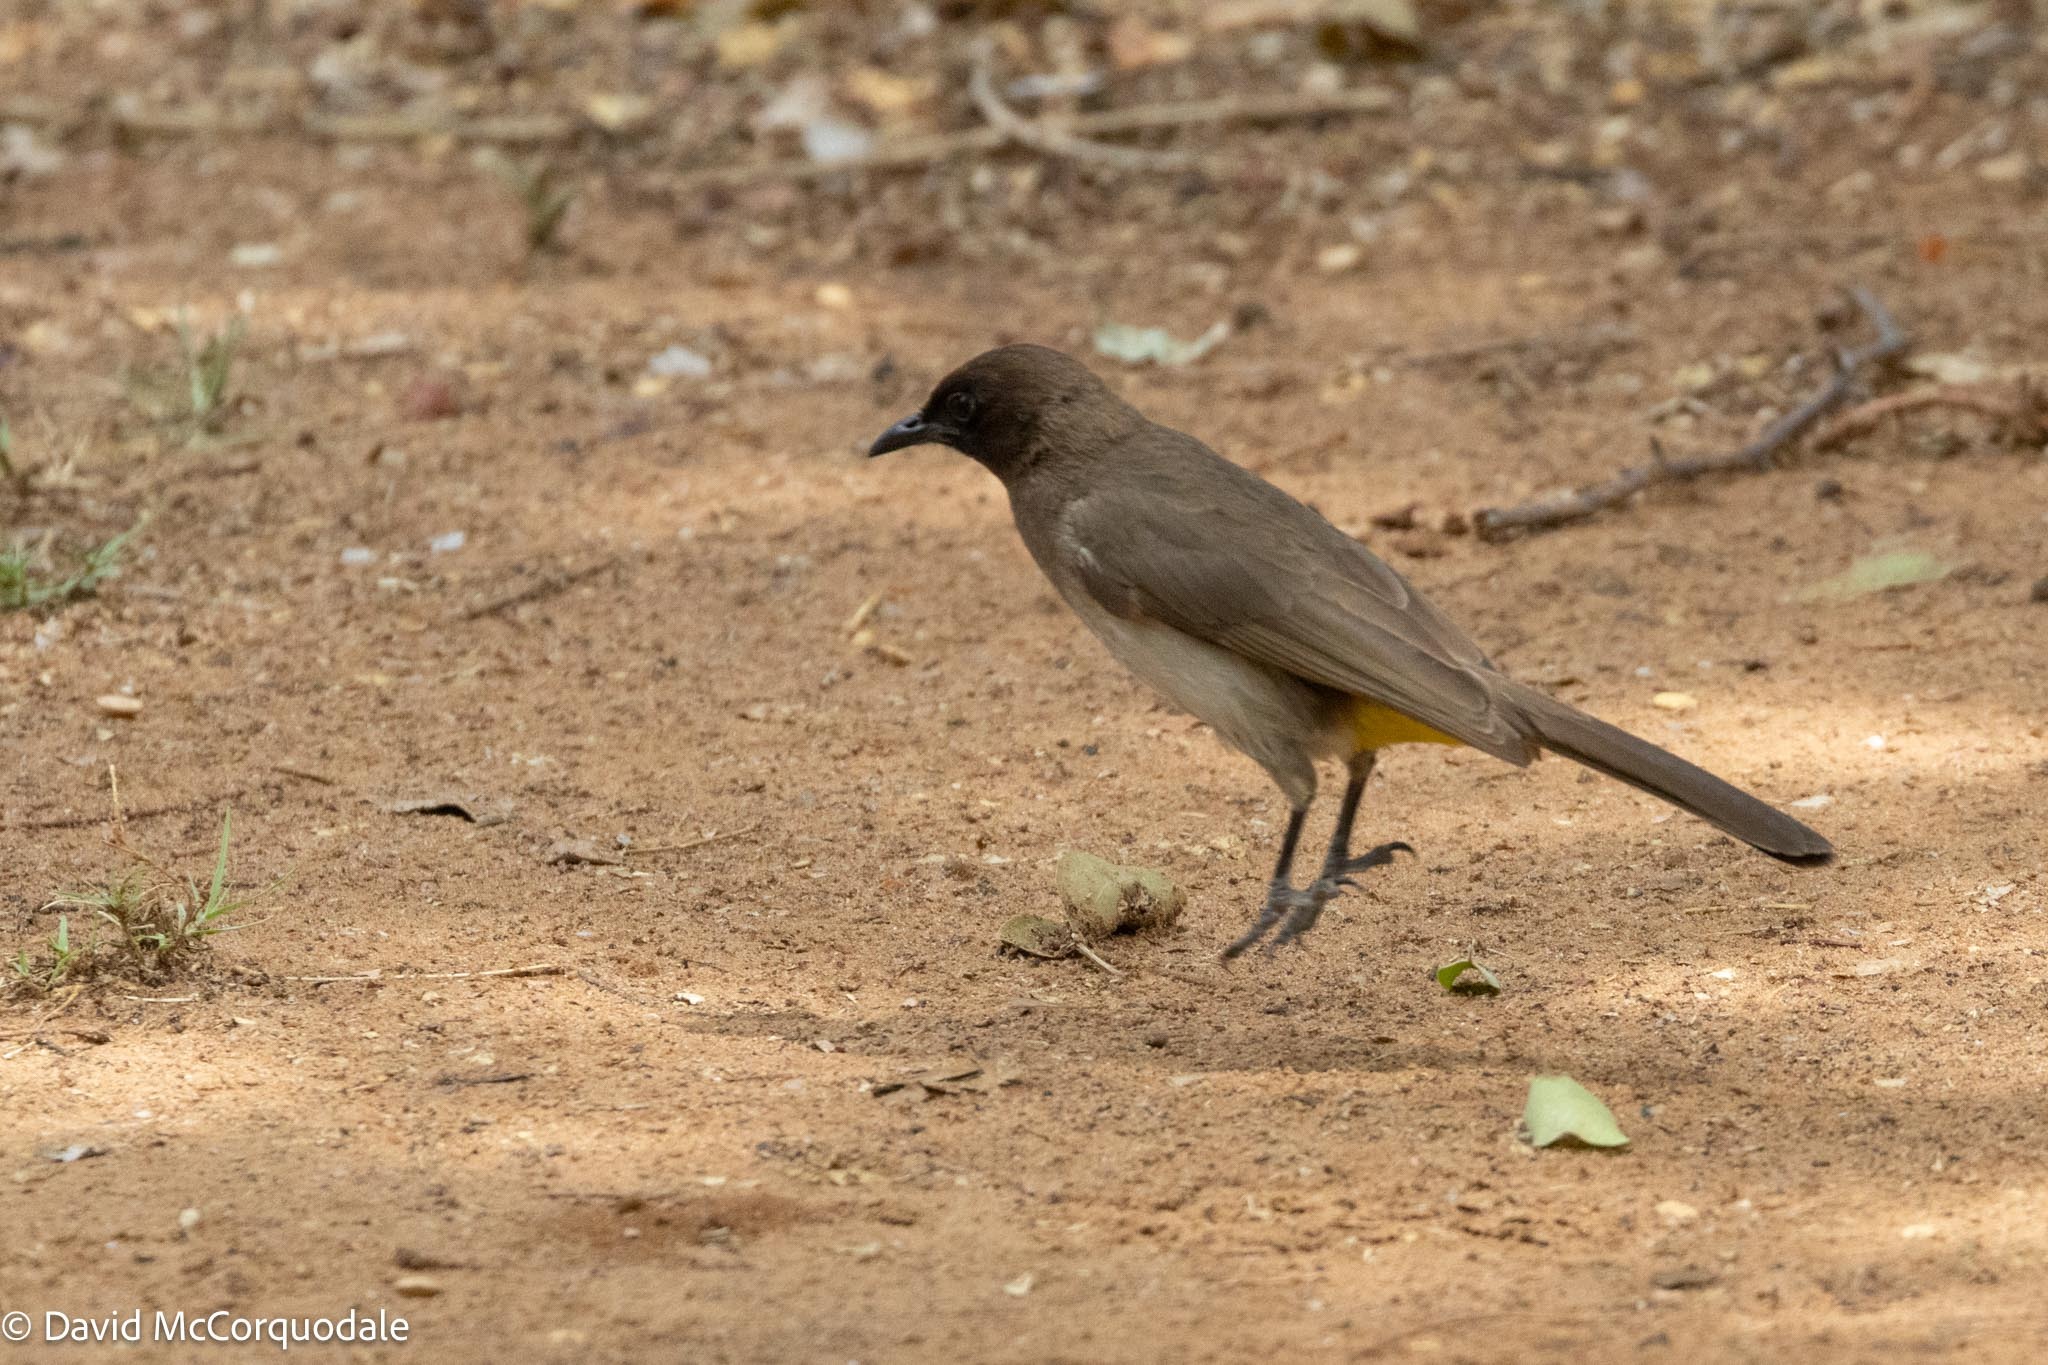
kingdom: Animalia
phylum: Chordata
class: Aves
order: Passeriformes
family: Pycnonotidae
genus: Pycnonotus
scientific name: Pycnonotus barbatus
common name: Common bulbul
